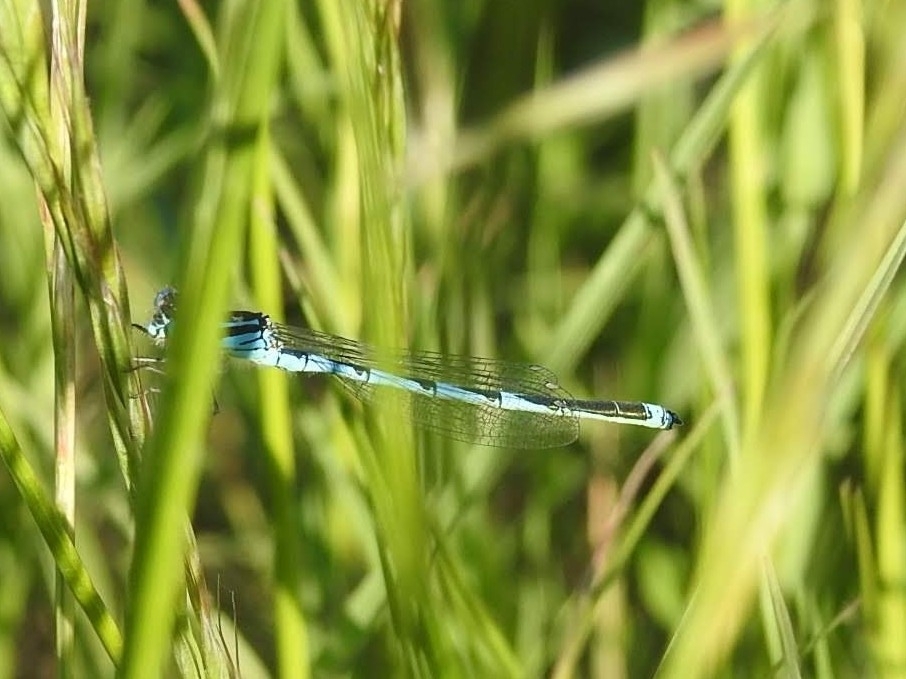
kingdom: Animalia
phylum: Arthropoda
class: Insecta
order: Odonata
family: Coenagrionidae
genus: Erythromma
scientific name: Erythromma lindenii
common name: Blue-eye
